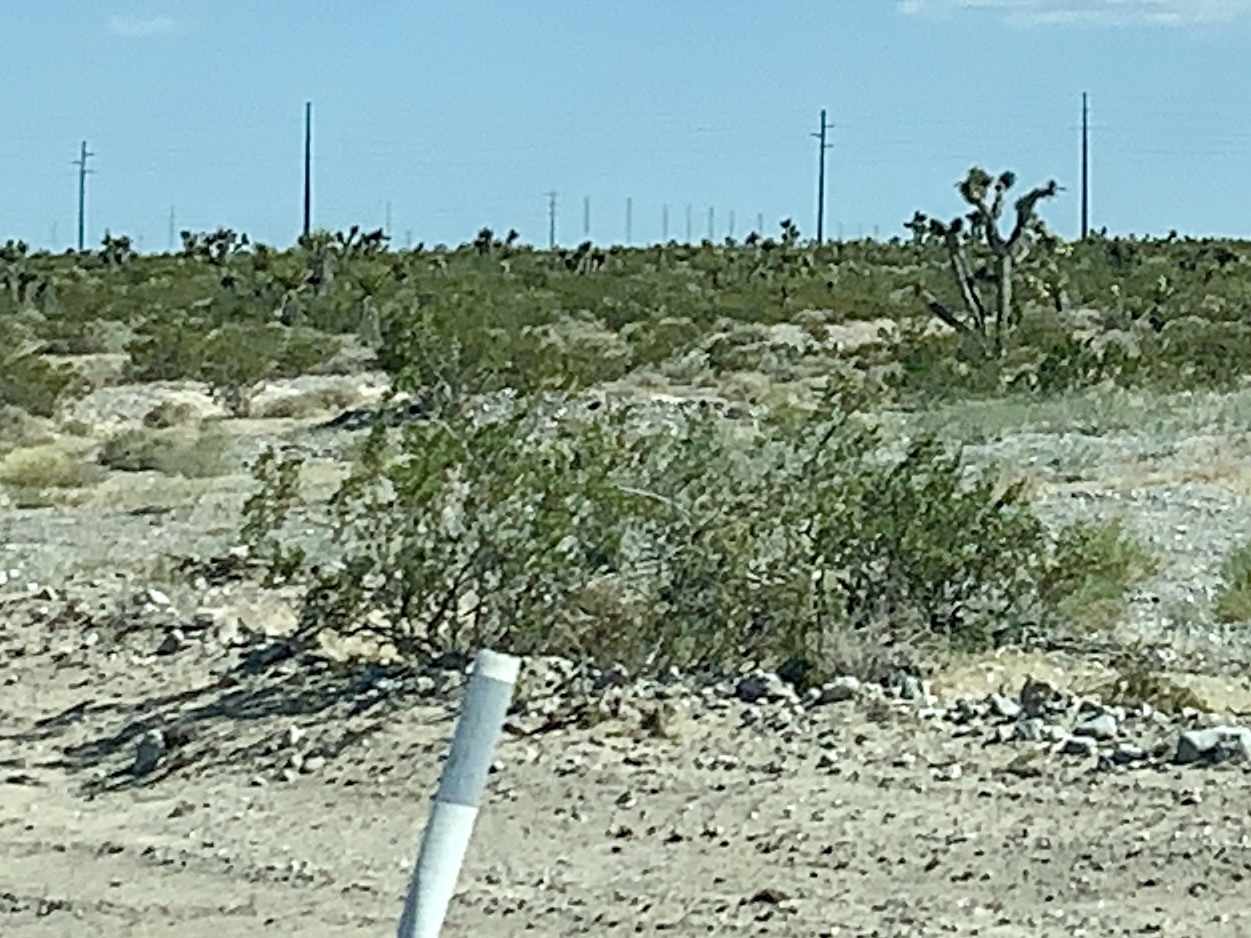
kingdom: Plantae
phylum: Tracheophyta
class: Magnoliopsida
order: Zygophyllales
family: Zygophyllaceae
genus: Larrea
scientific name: Larrea tridentata
